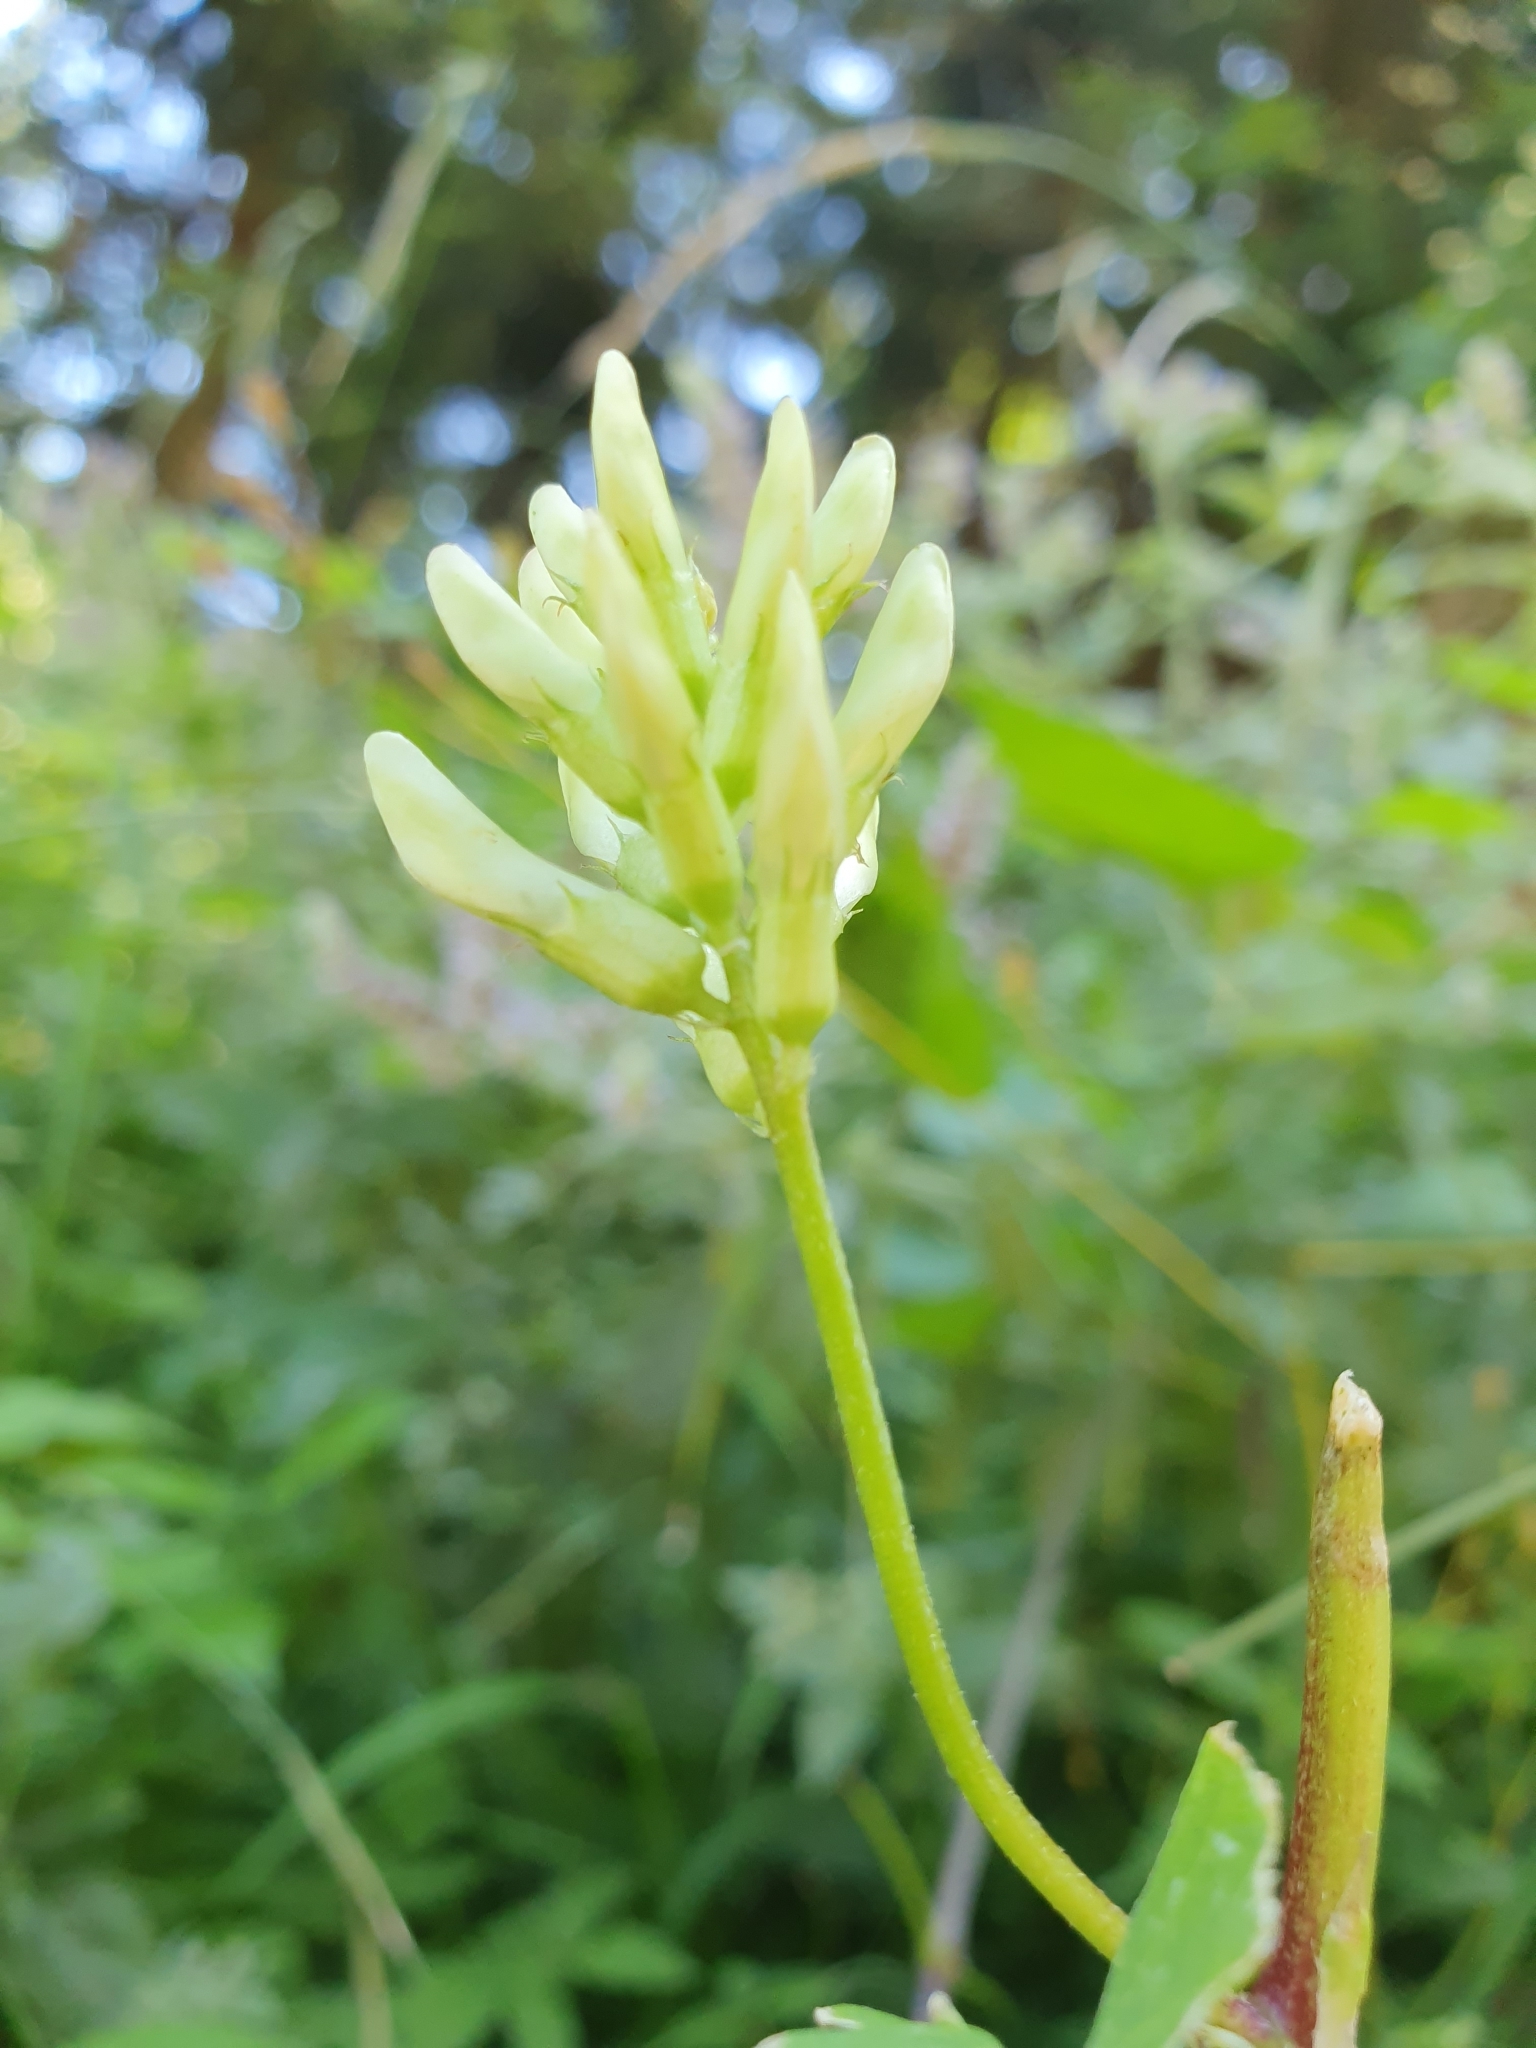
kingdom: Plantae
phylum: Tracheophyta
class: Magnoliopsida
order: Fabales
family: Fabaceae
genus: Astragalus
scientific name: Astragalus glycyphyllos
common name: Wild liquorice
